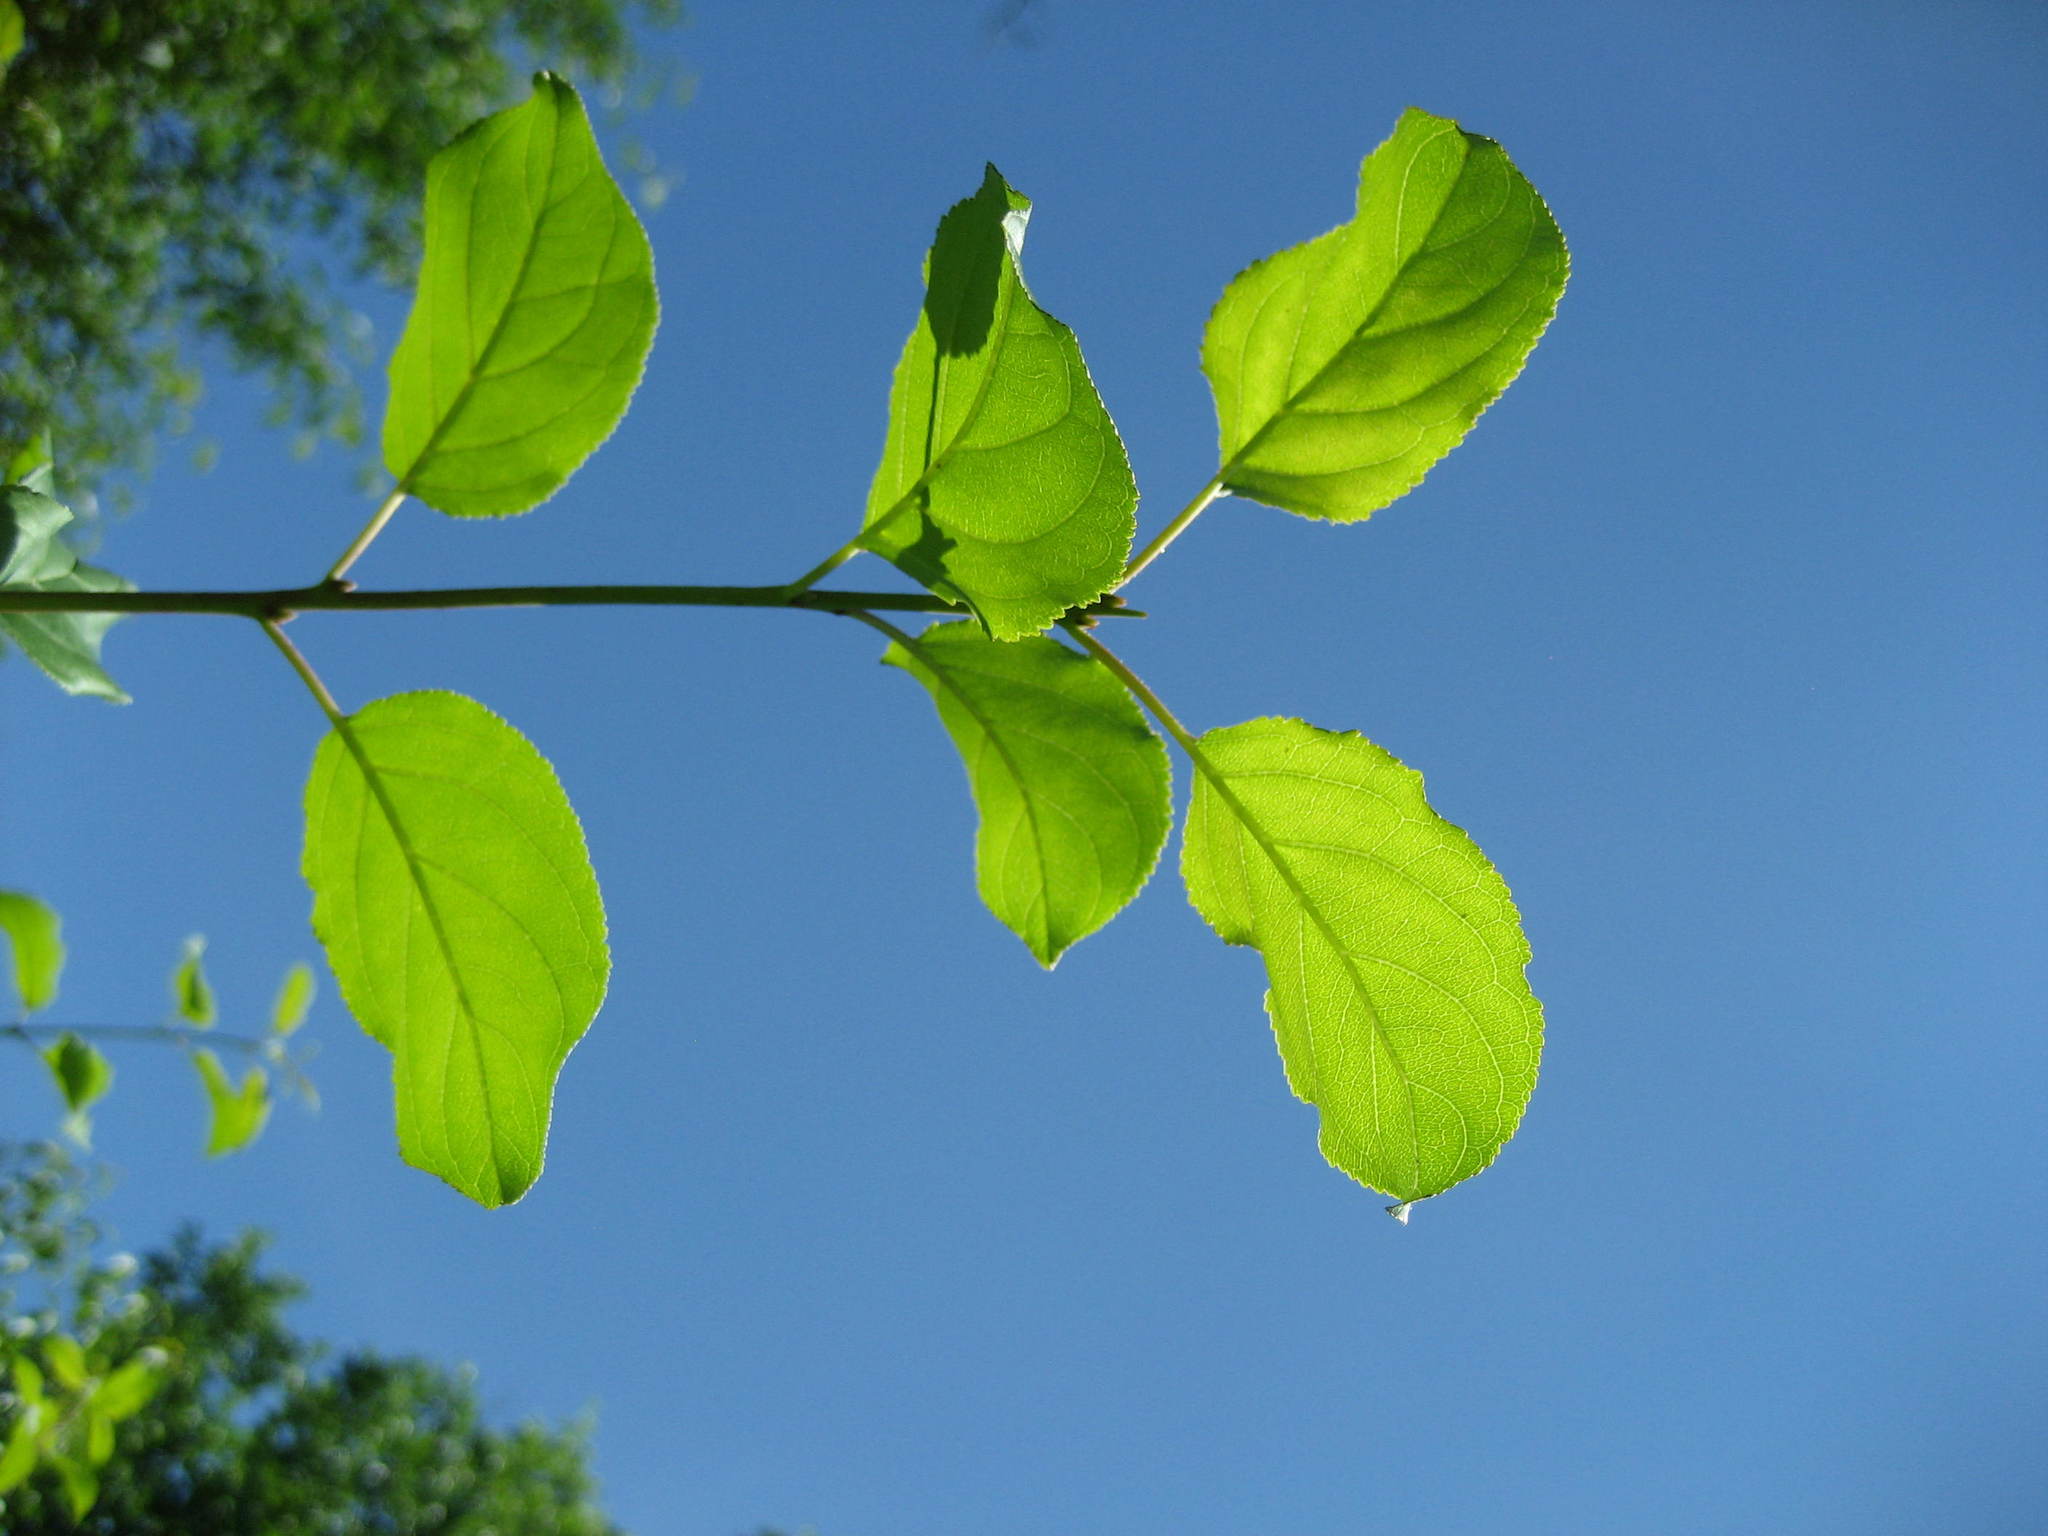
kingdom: Plantae
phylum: Tracheophyta
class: Magnoliopsida
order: Rosales
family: Rhamnaceae
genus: Rhamnus
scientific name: Rhamnus cathartica
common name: Common buckthorn
